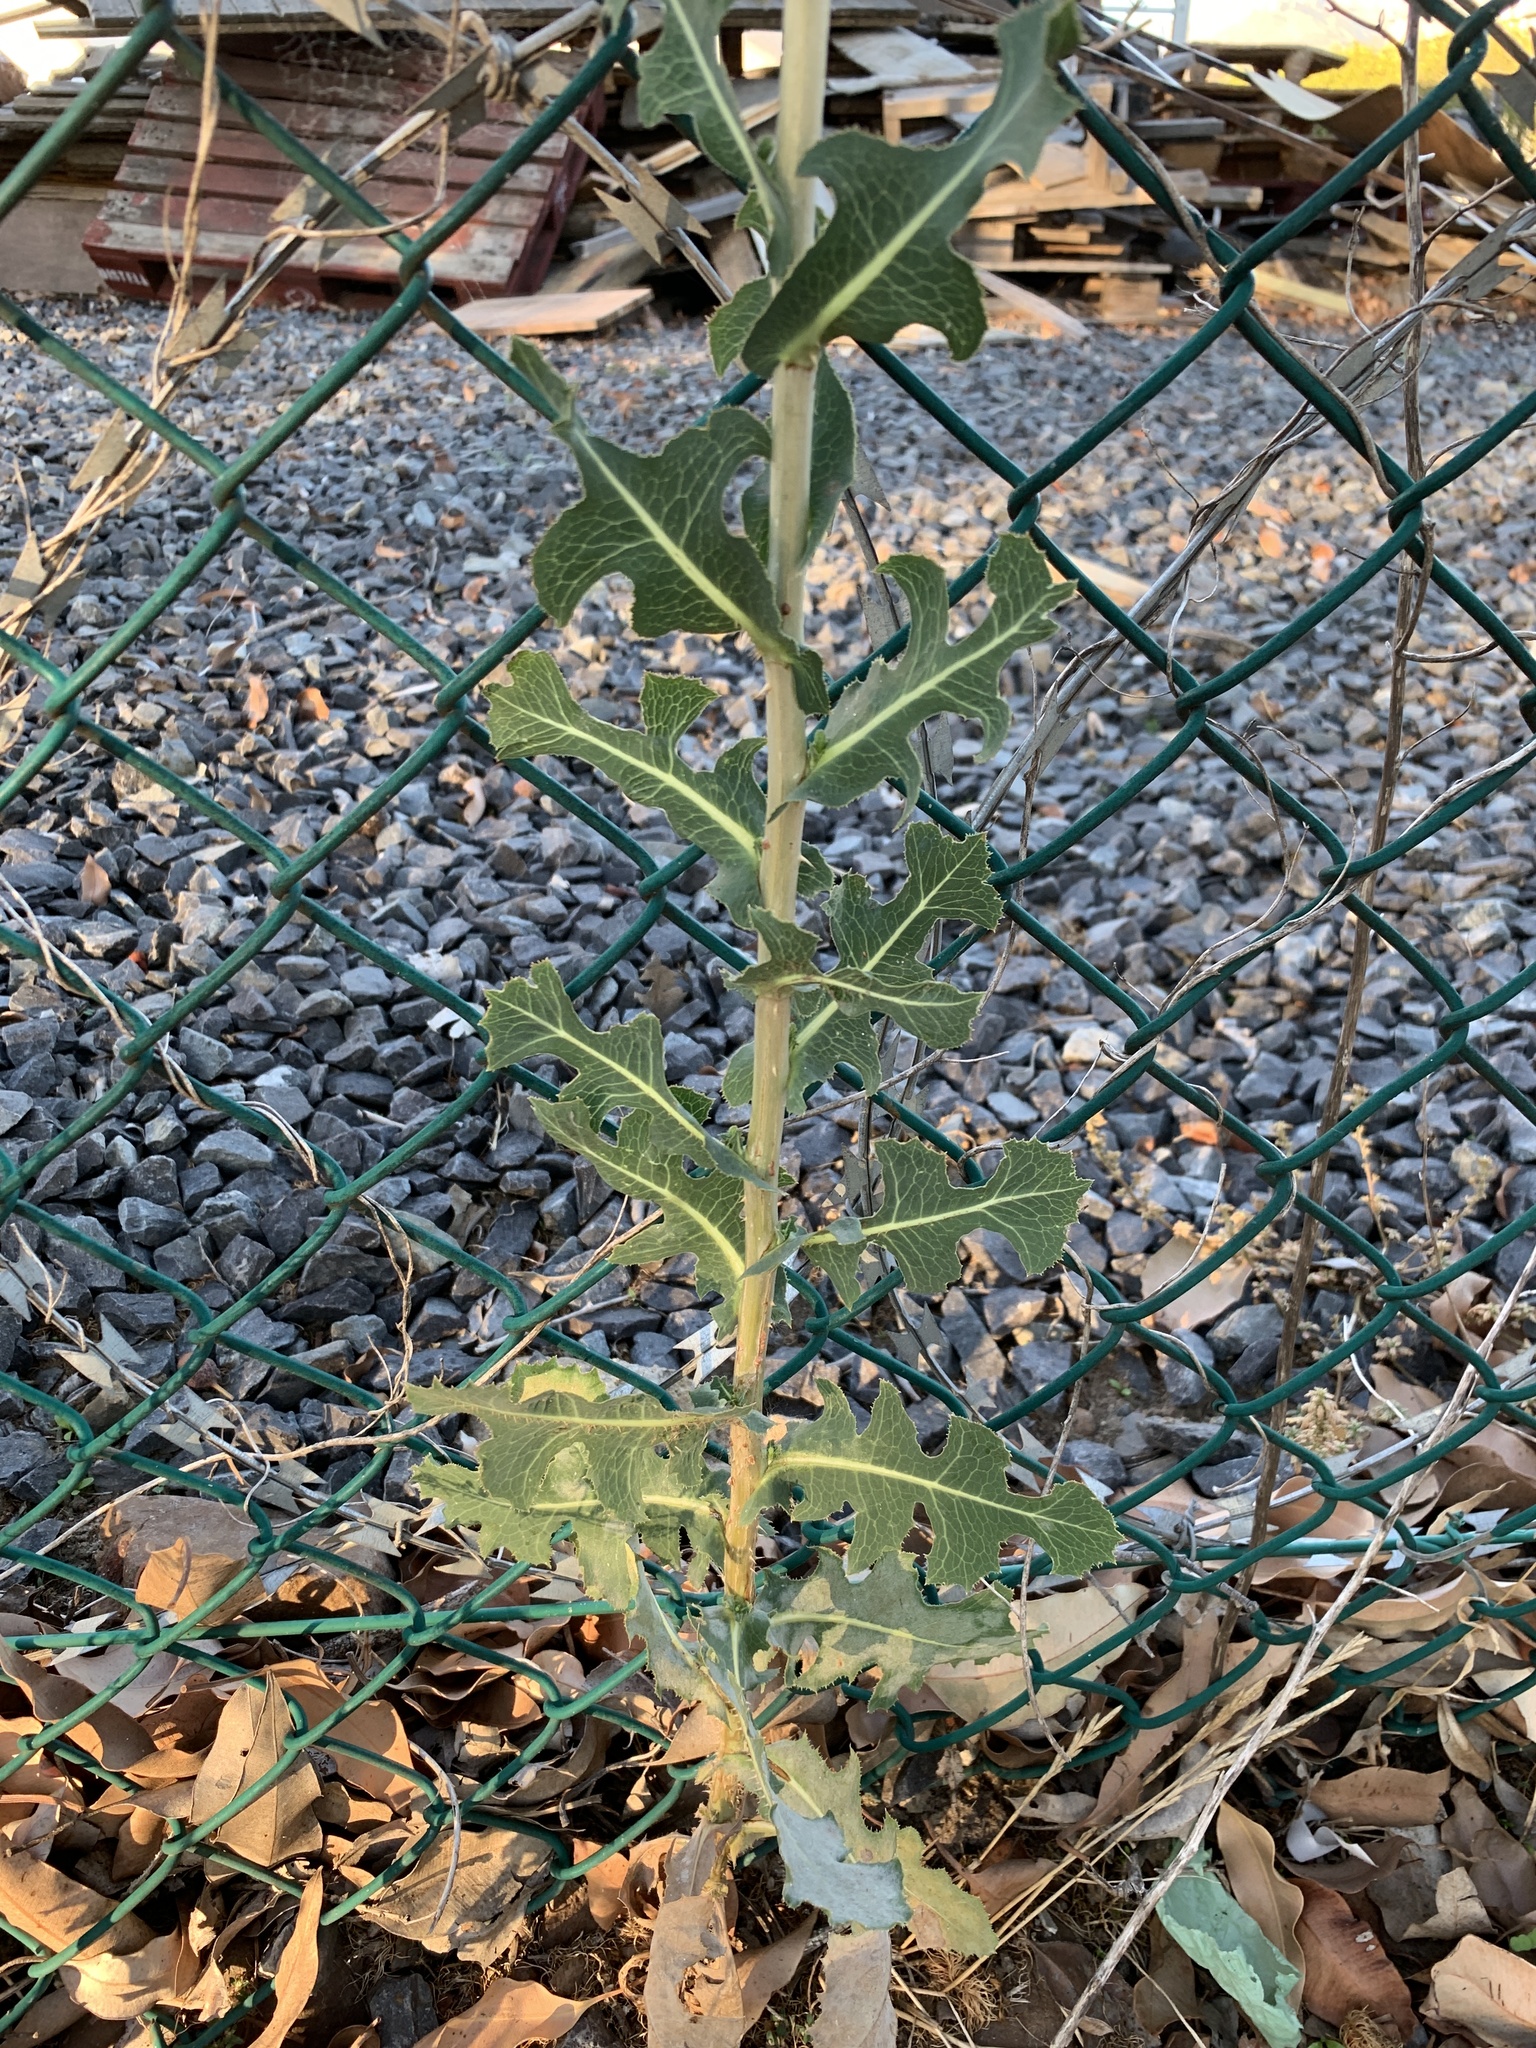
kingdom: Plantae
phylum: Tracheophyta
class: Magnoliopsida
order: Asterales
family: Asteraceae
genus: Lactuca
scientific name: Lactuca serriola
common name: Prickly lettuce
